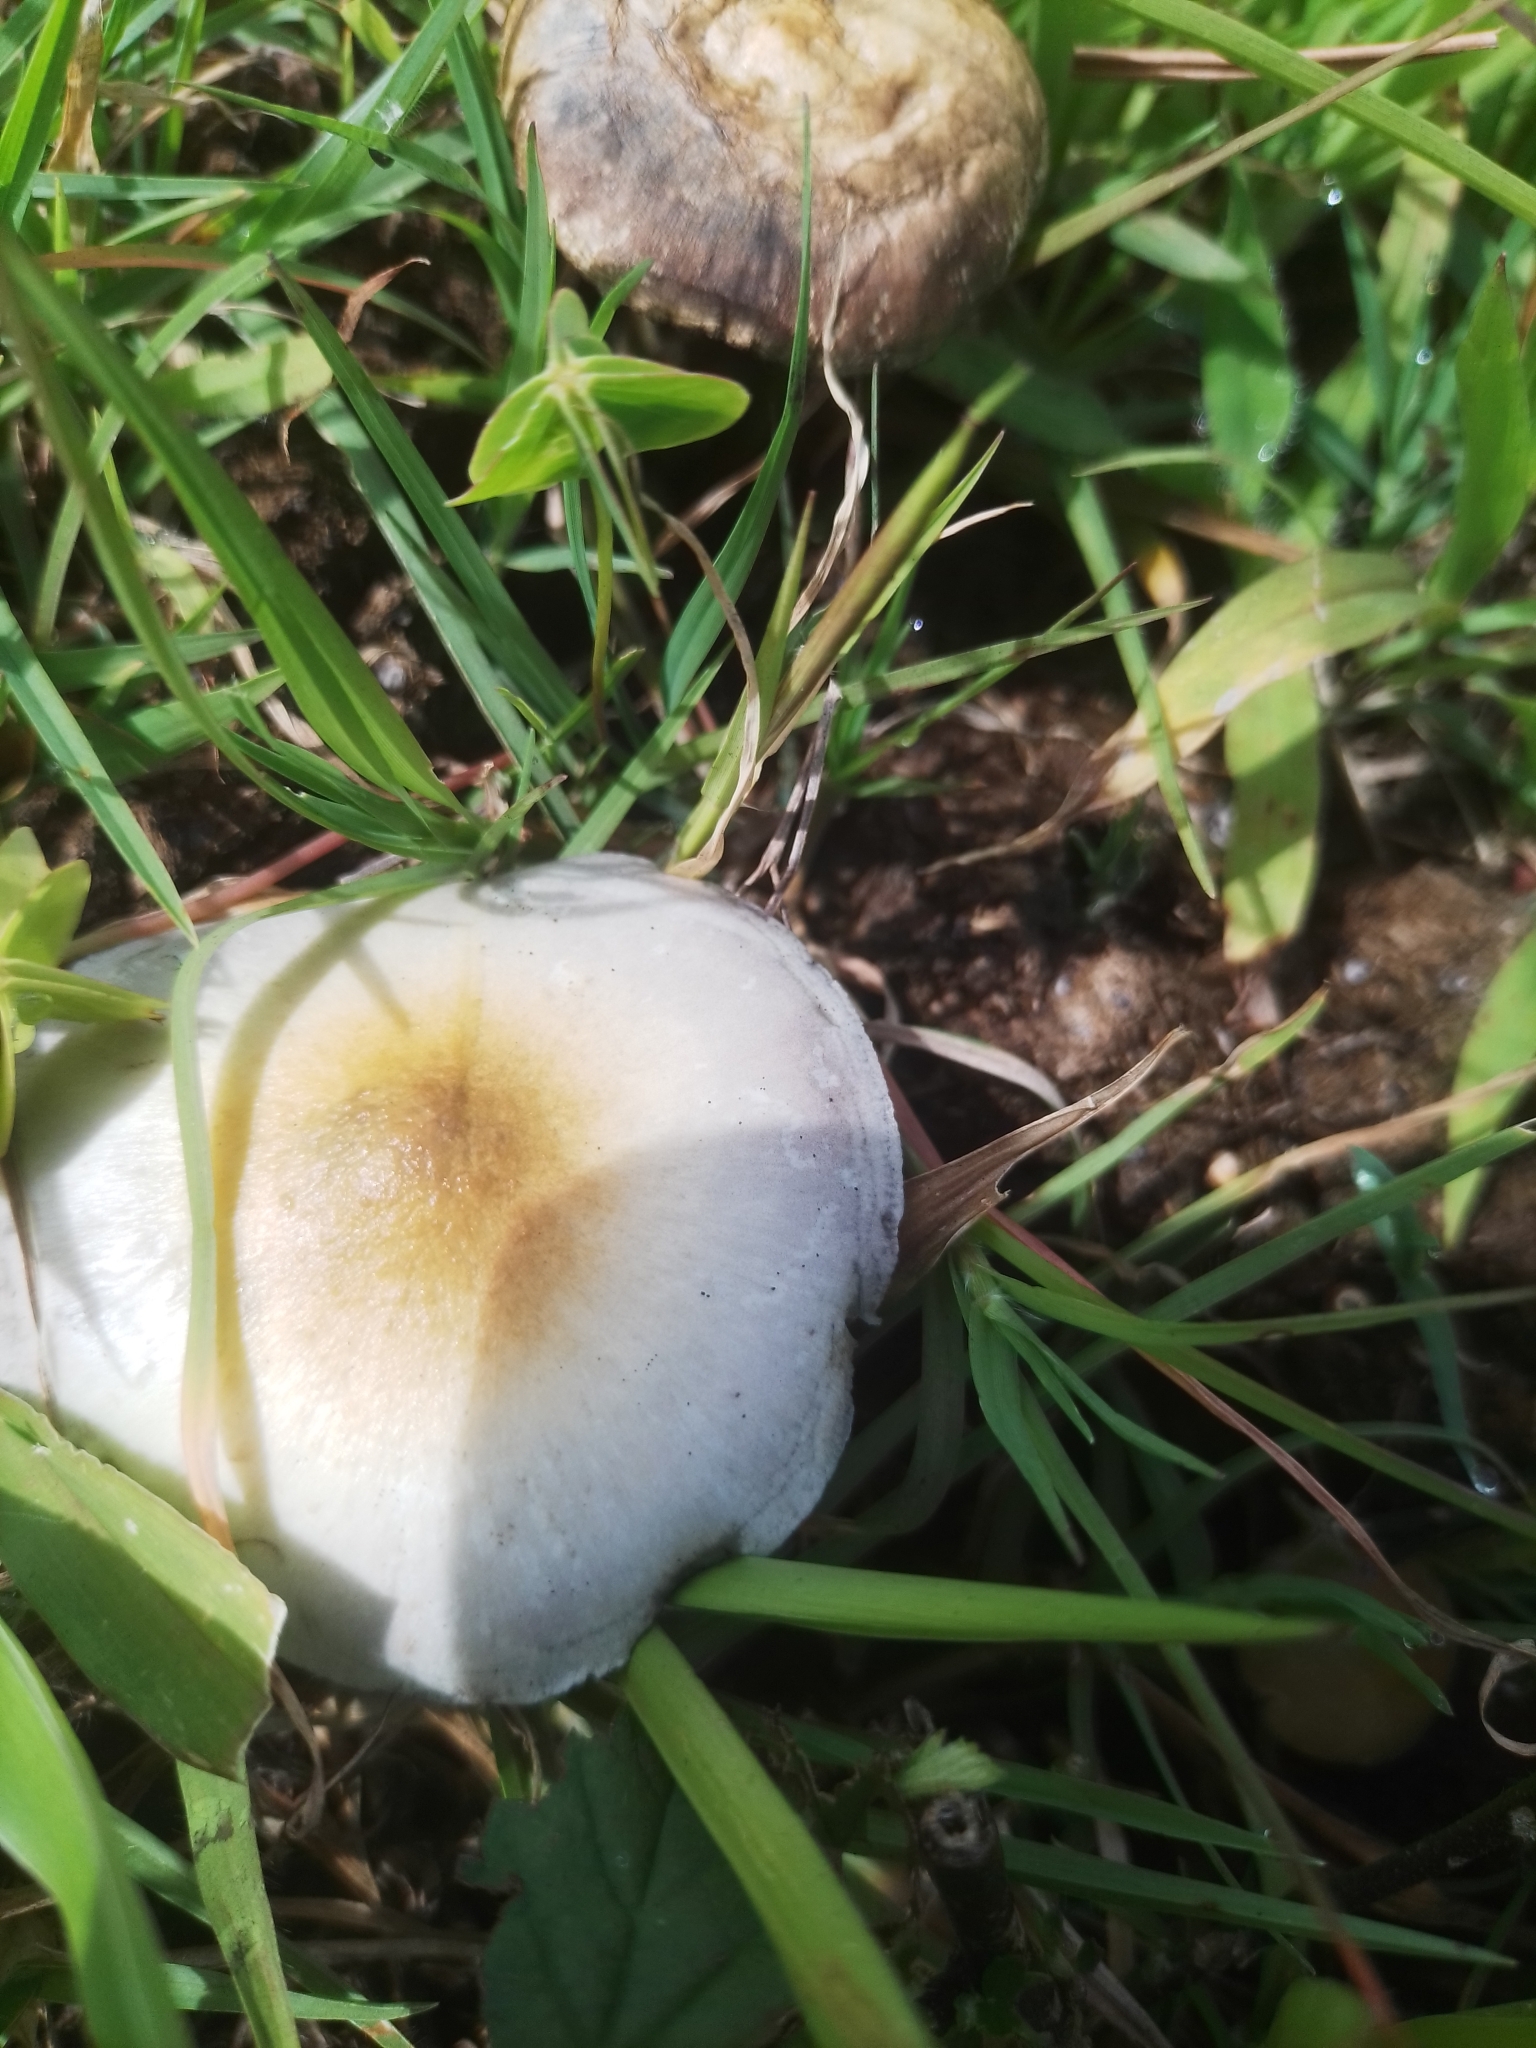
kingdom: Fungi
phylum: Basidiomycota
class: Agaricomycetes
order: Agaricales
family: Hymenogastraceae
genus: Psilocybe
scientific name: Psilocybe cubensis
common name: Golden brownie
